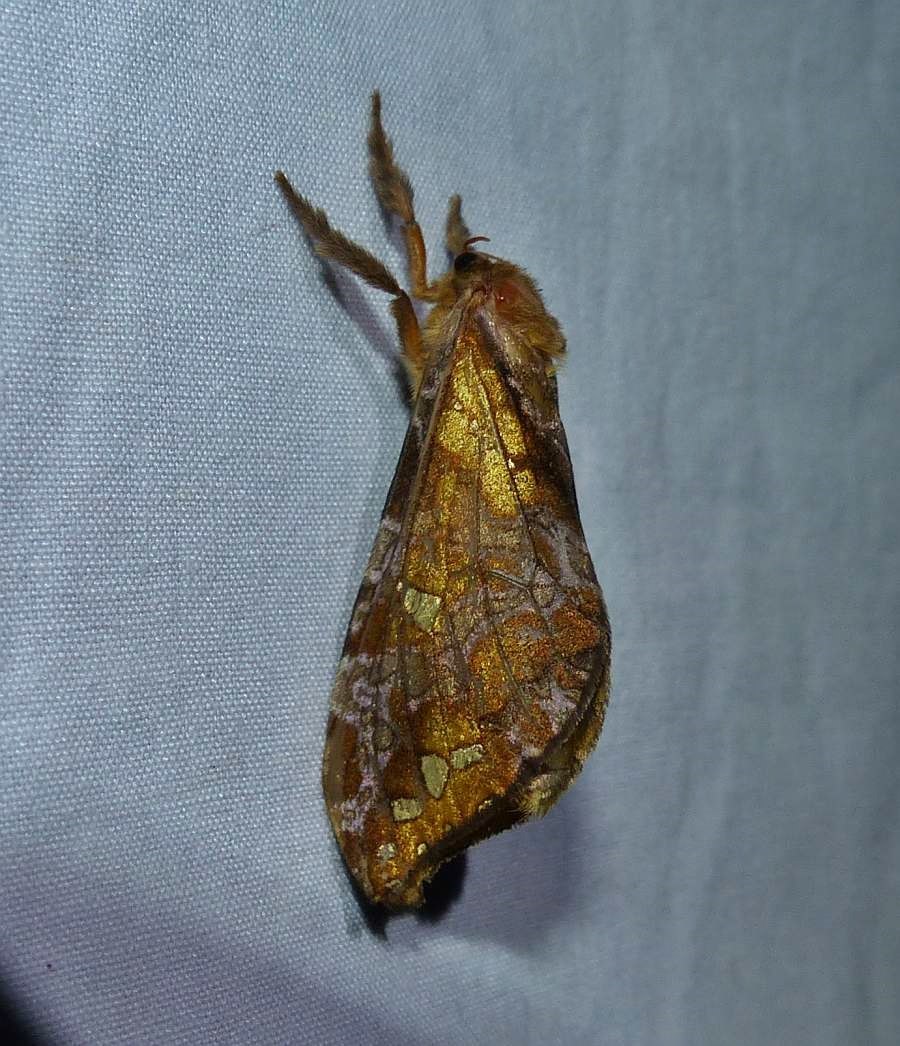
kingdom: Animalia
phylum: Arthropoda
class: Insecta
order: Lepidoptera
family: Hepialidae
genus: Sthenopis
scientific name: Sthenopis pretiosus
